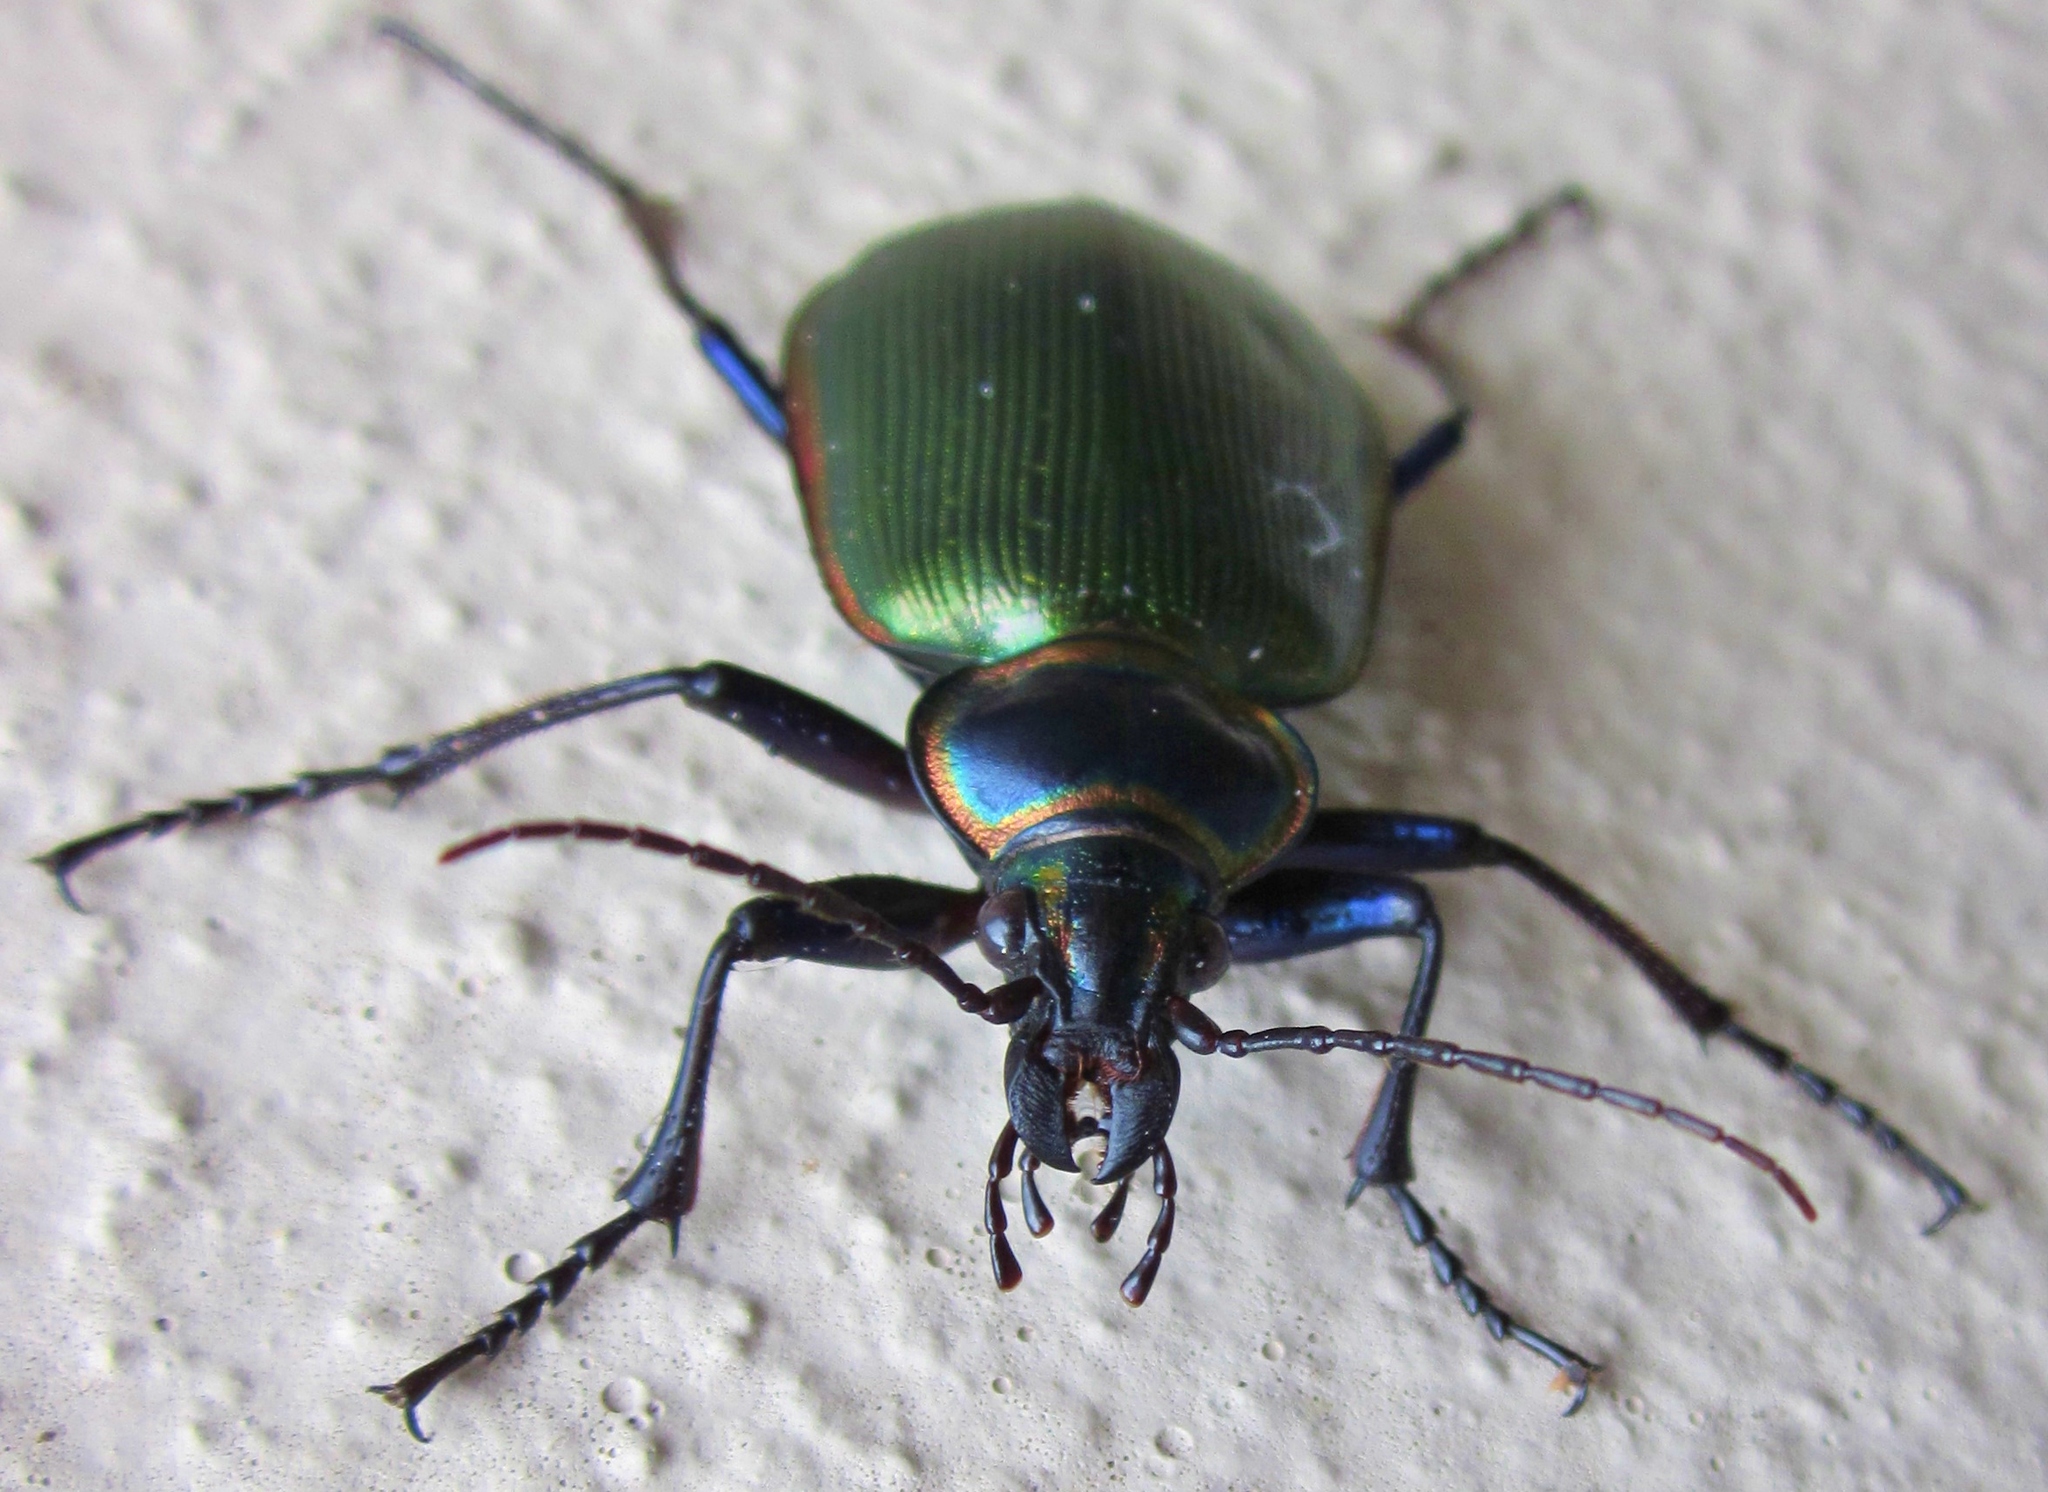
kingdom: Animalia
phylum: Arthropoda
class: Insecta
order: Coleoptera
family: Carabidae
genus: Calosoma
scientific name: Calosoma scrutator
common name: Fiery searcher beetle
